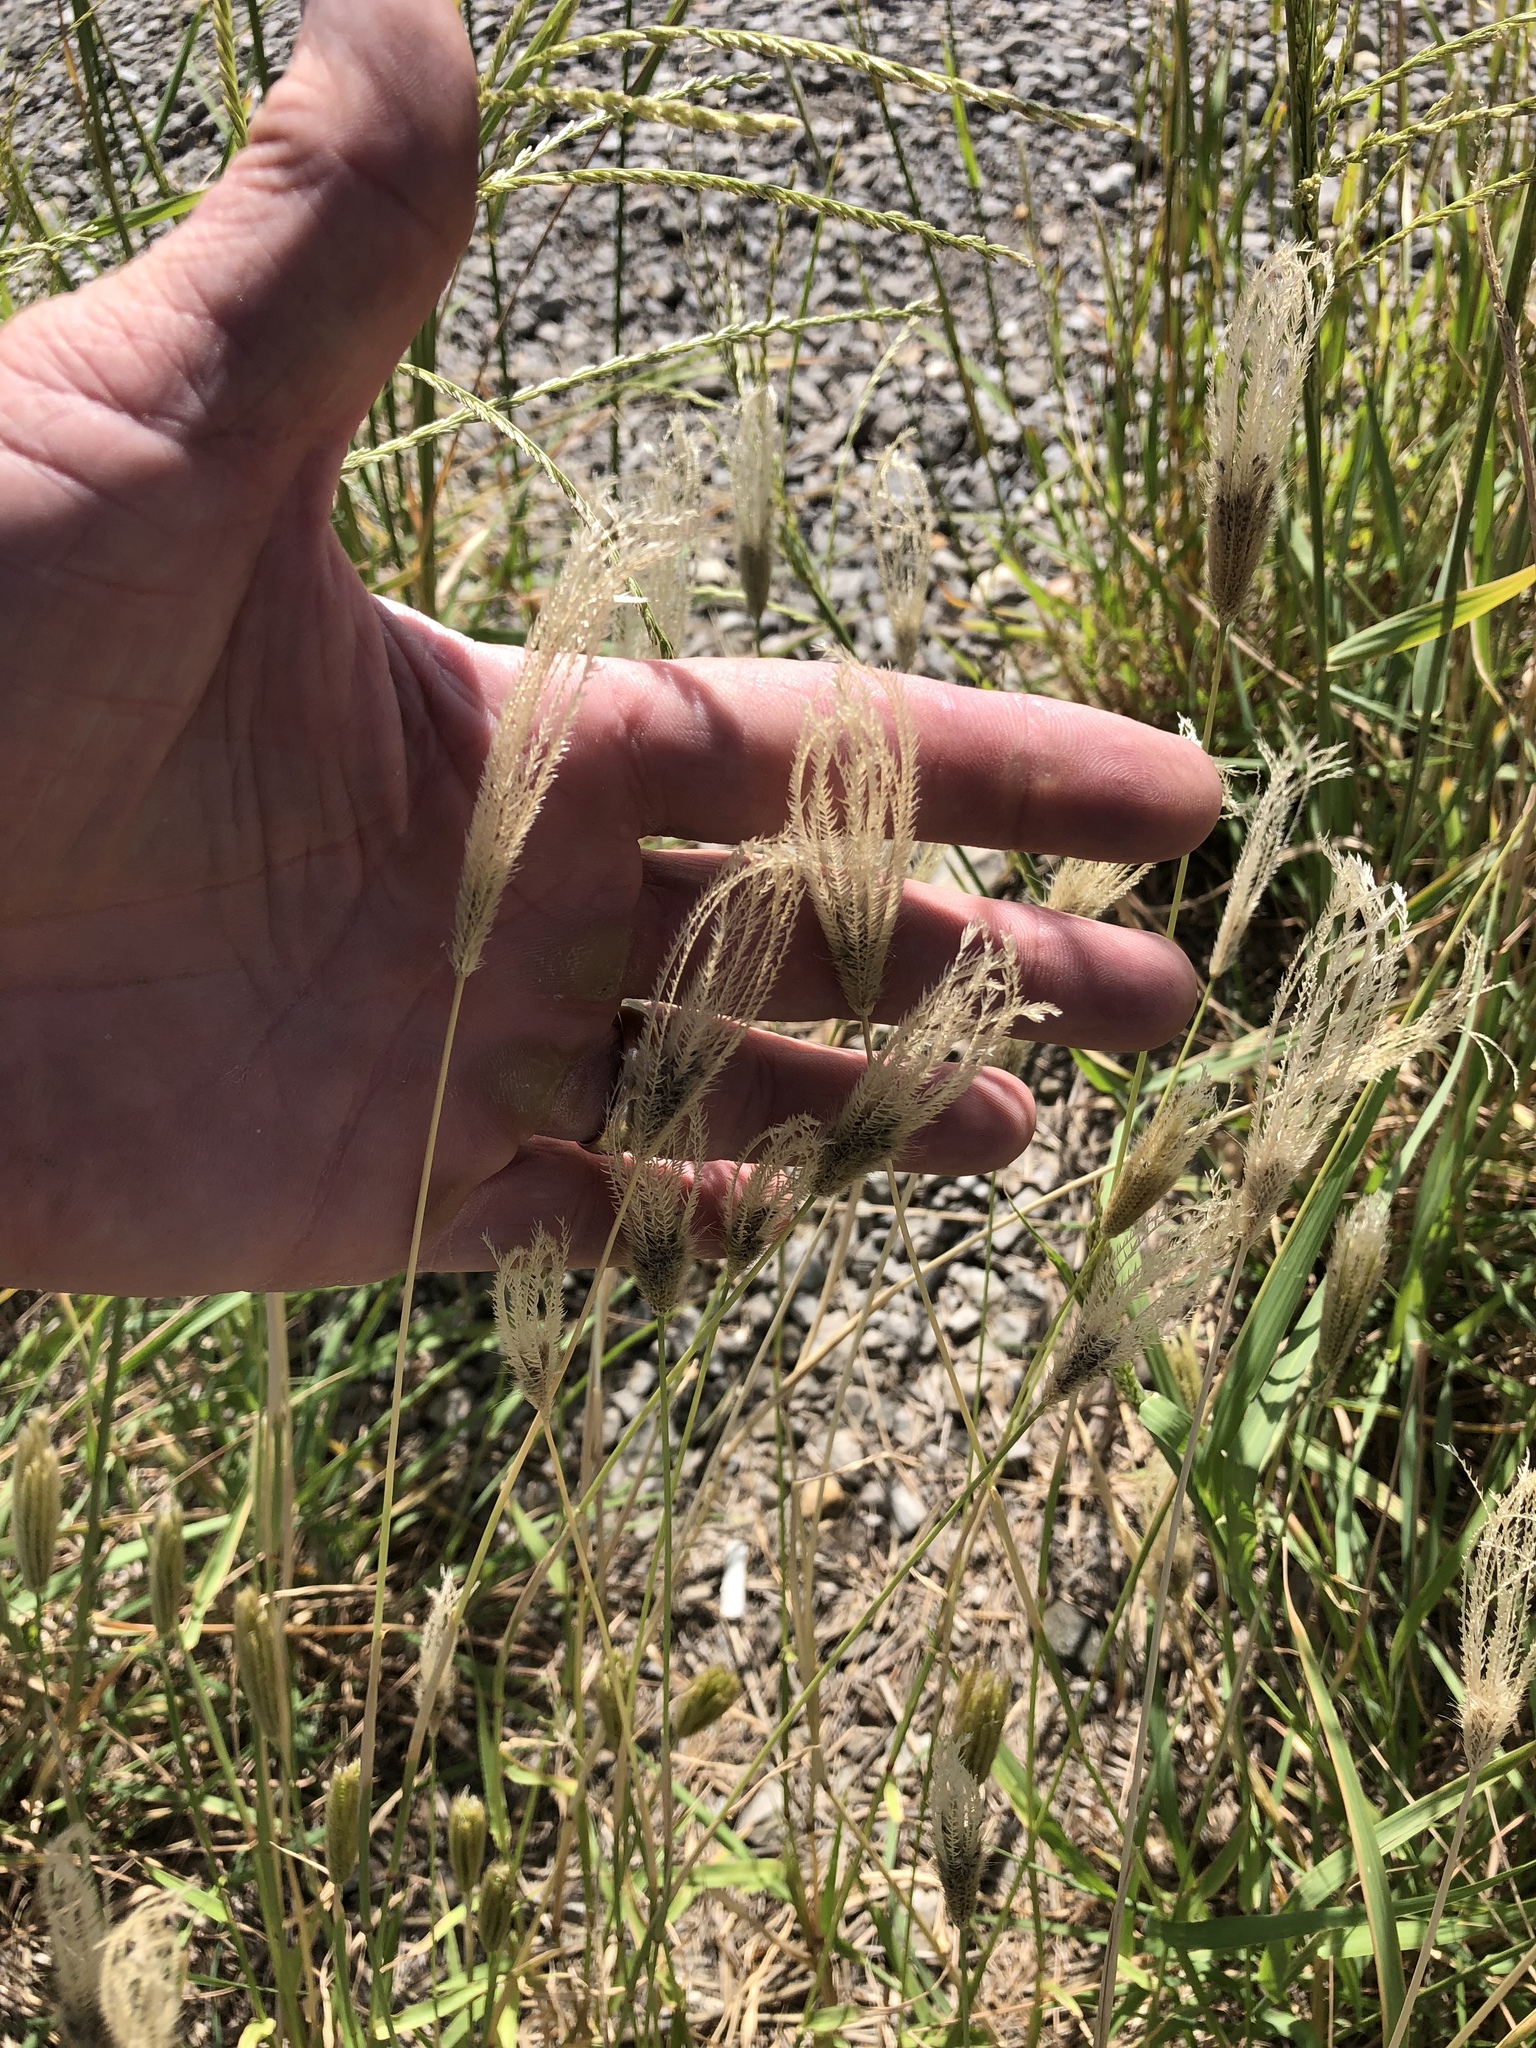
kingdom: Plantae
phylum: Tracheophyta
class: Liliopsida
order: Poales
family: Poaceae
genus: Chloris
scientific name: Chloris virgata
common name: Feathery rhodes-grass
